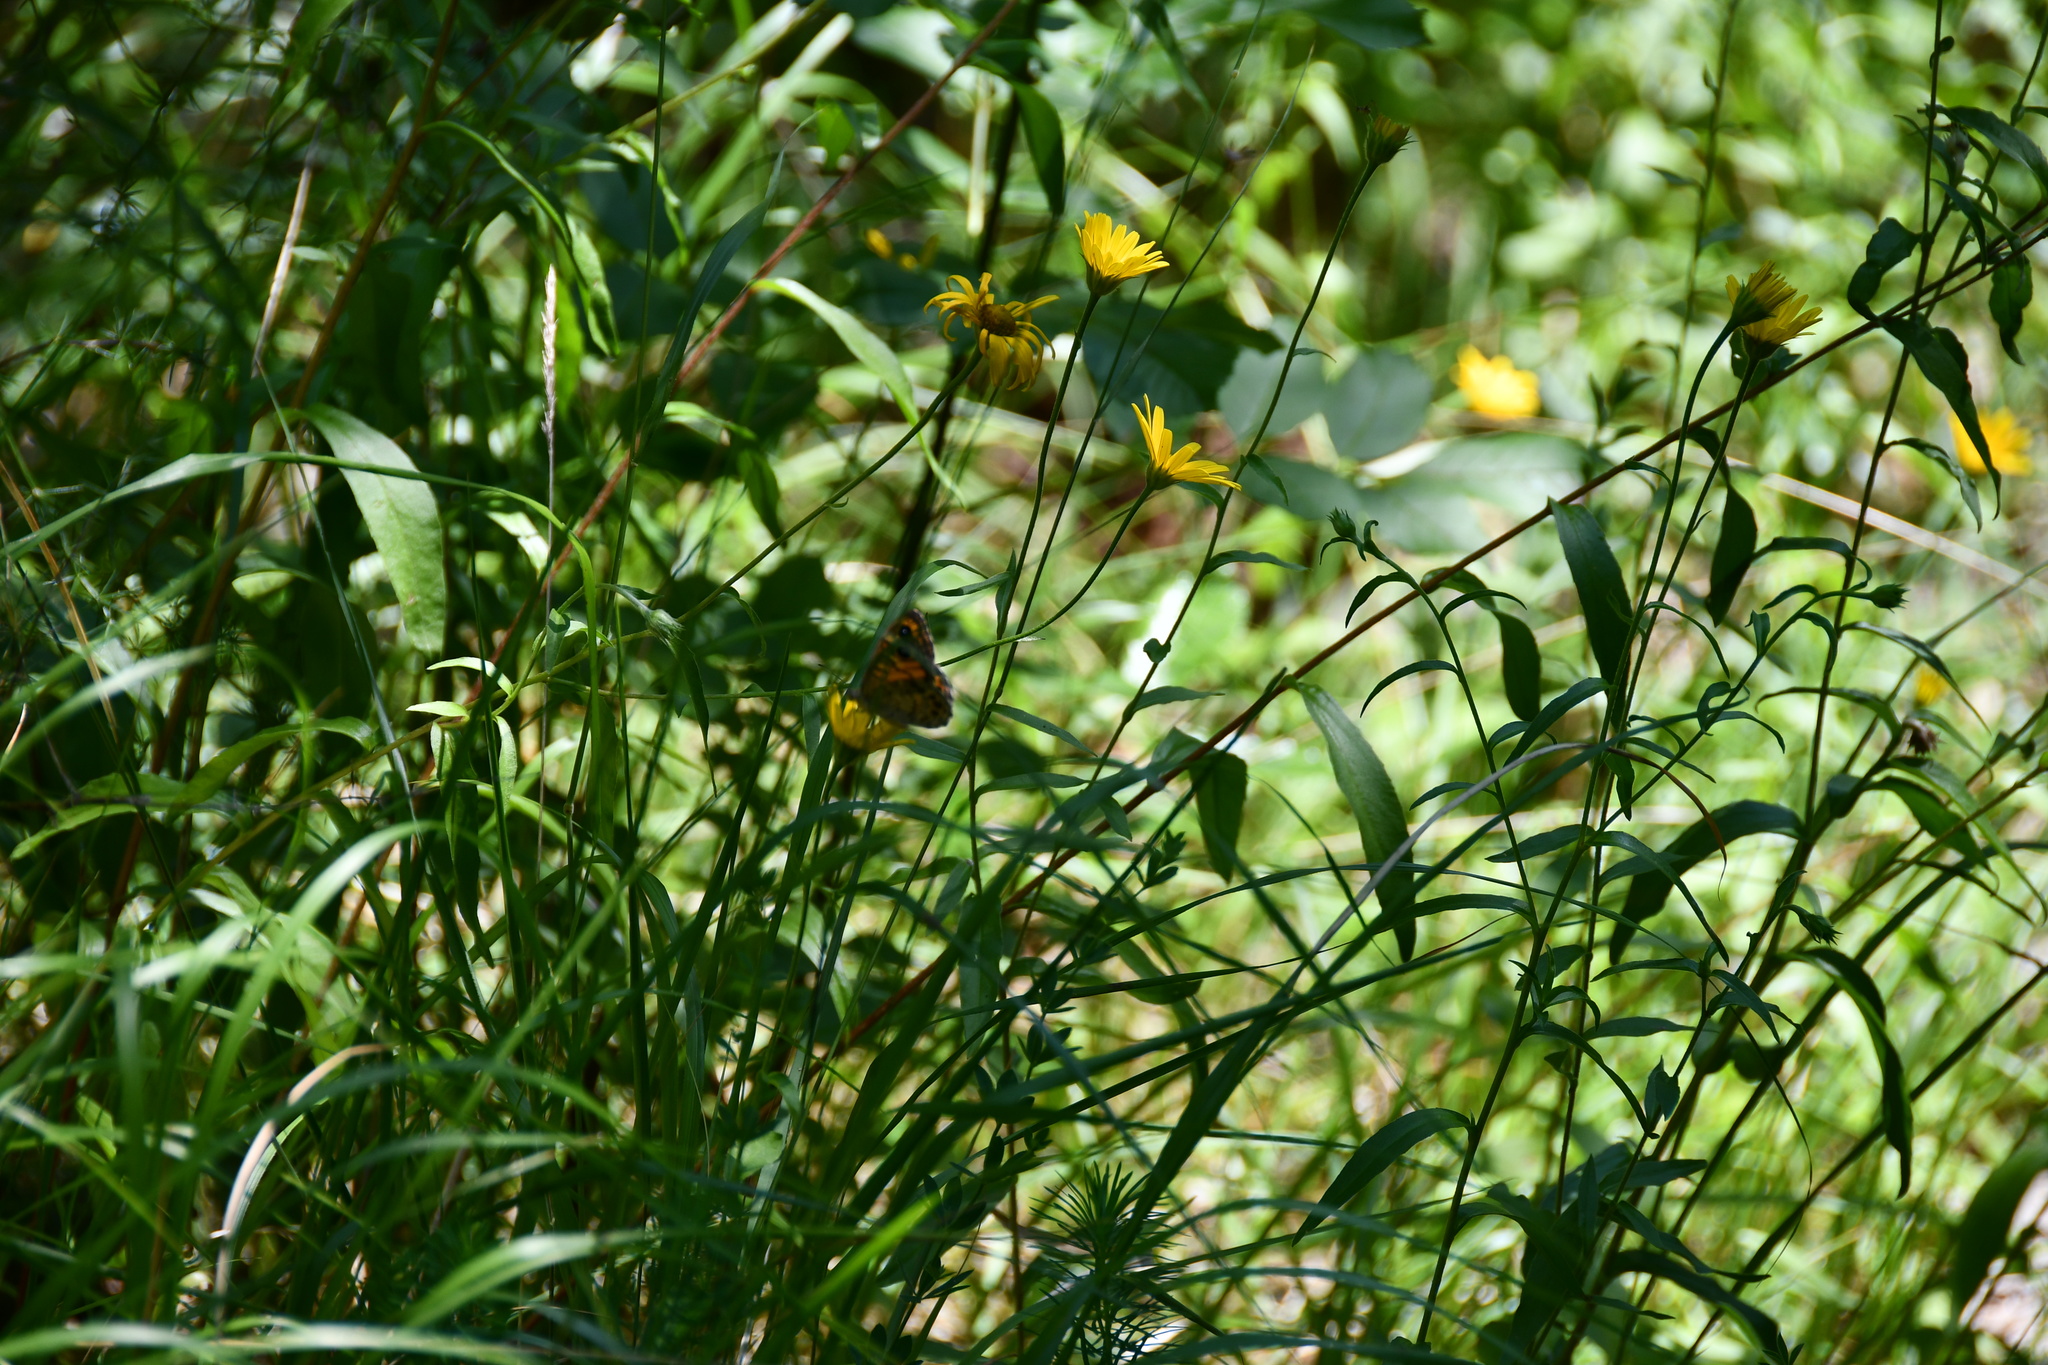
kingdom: Animalia
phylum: Arthropoda
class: Insecta
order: Lepidoptera
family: Nymphalidae
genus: Pararge
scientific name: Pararge Lasiommata megera
